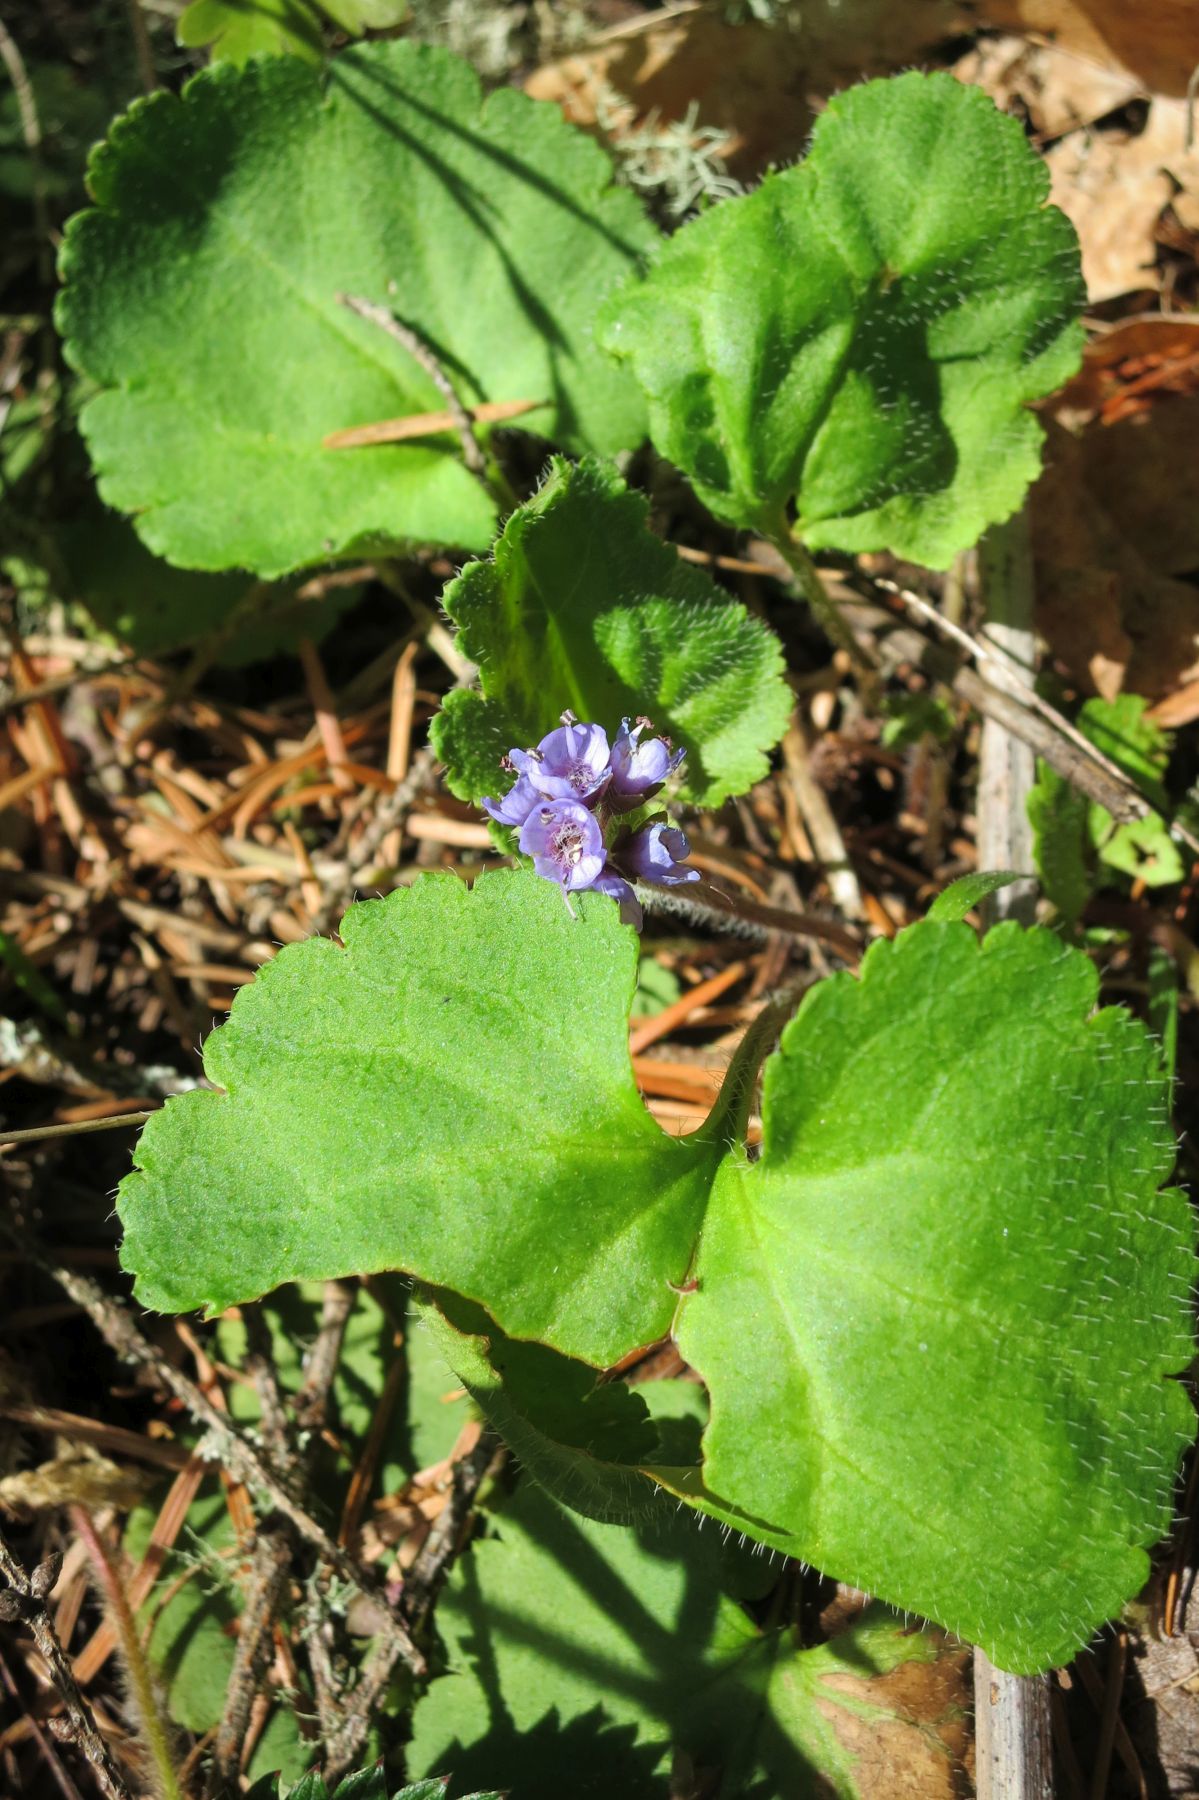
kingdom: Plantae
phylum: Tracheophyta
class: Magnoliopsida
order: Lamiales
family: Plantaginaceae
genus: Synthyris
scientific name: Synthyris reniformis
